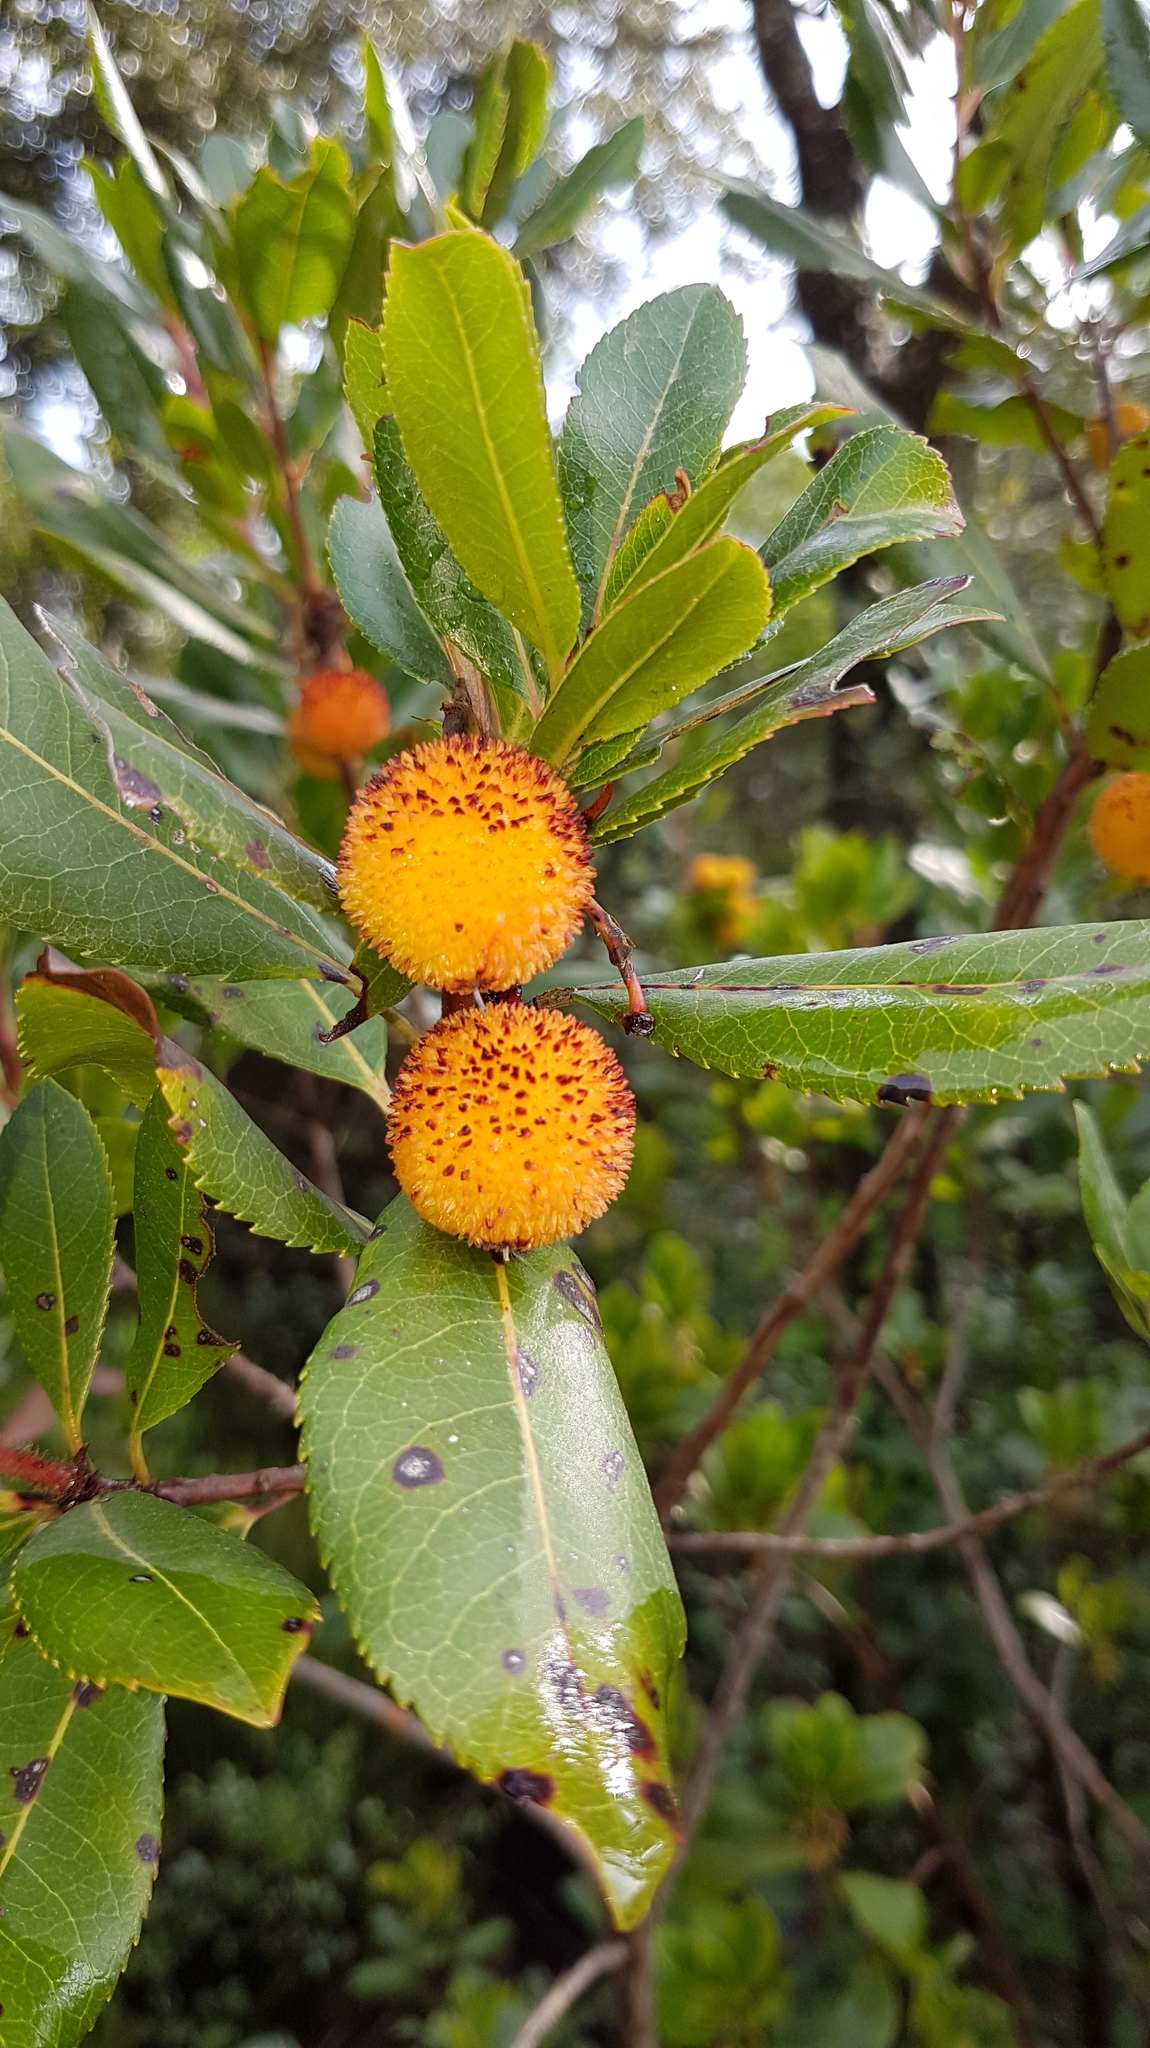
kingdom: Plantae
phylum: Tracheophyta
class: Magnoliopsida
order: Ericales
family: Ericaceae
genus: Arbutus
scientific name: Arbutus unedo
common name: Strawberry-tree
